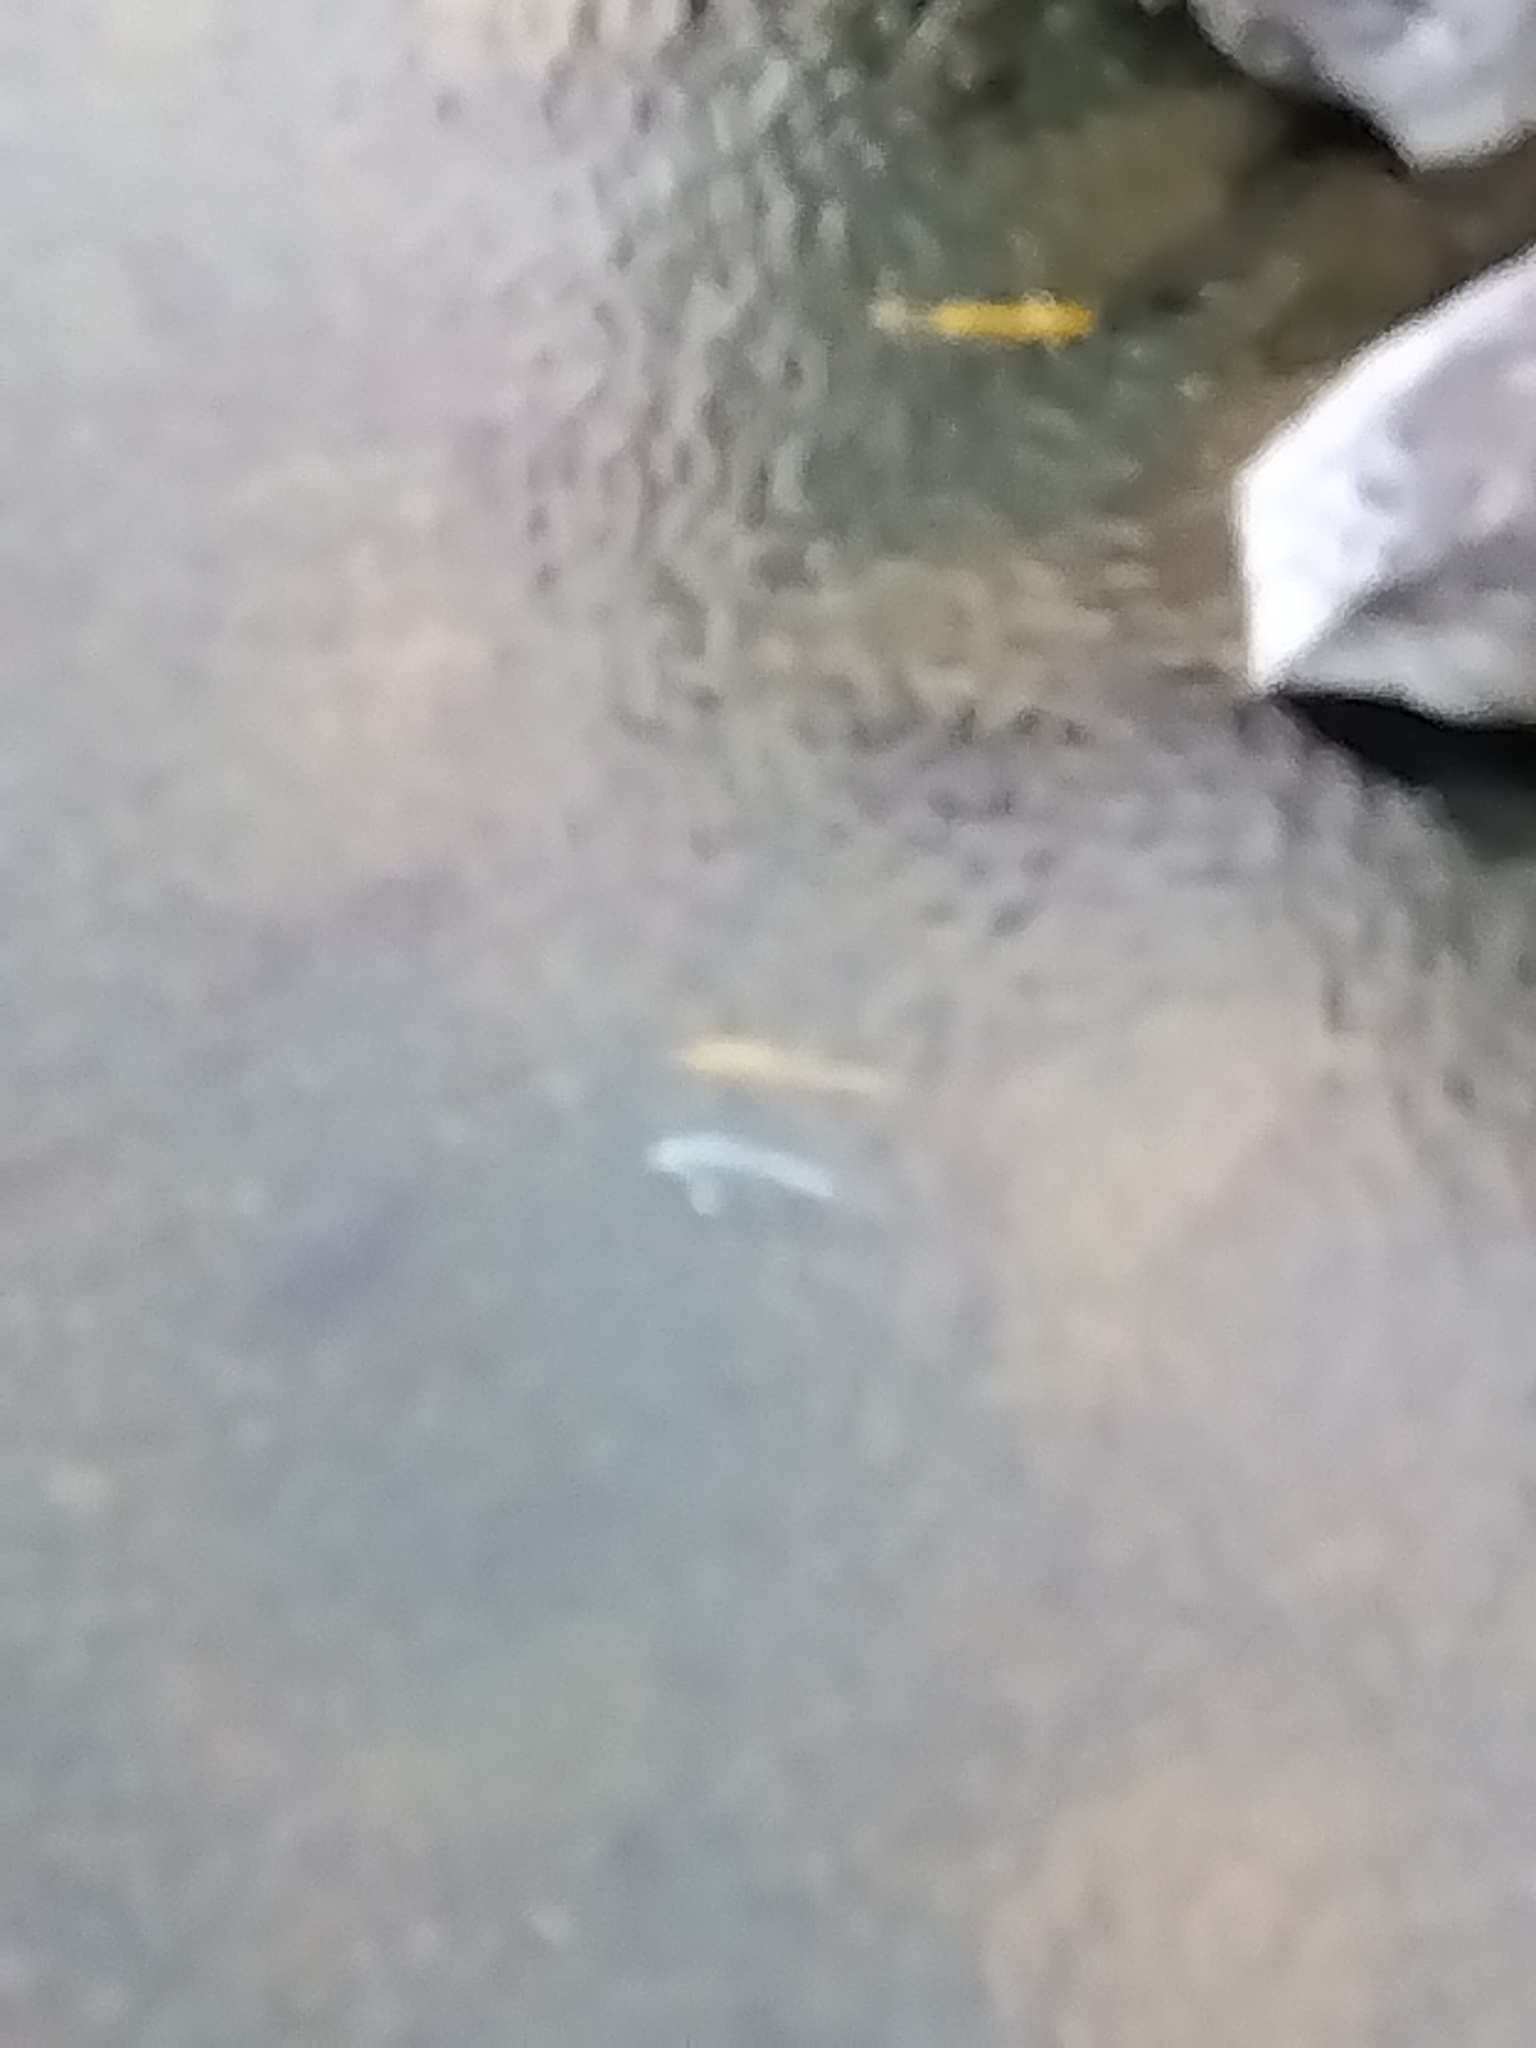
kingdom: Animalia
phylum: Chordata
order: Cypriniformes
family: Cyprinidae
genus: Cyprinus
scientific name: Cyprinus rubrofuscus
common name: Koi
